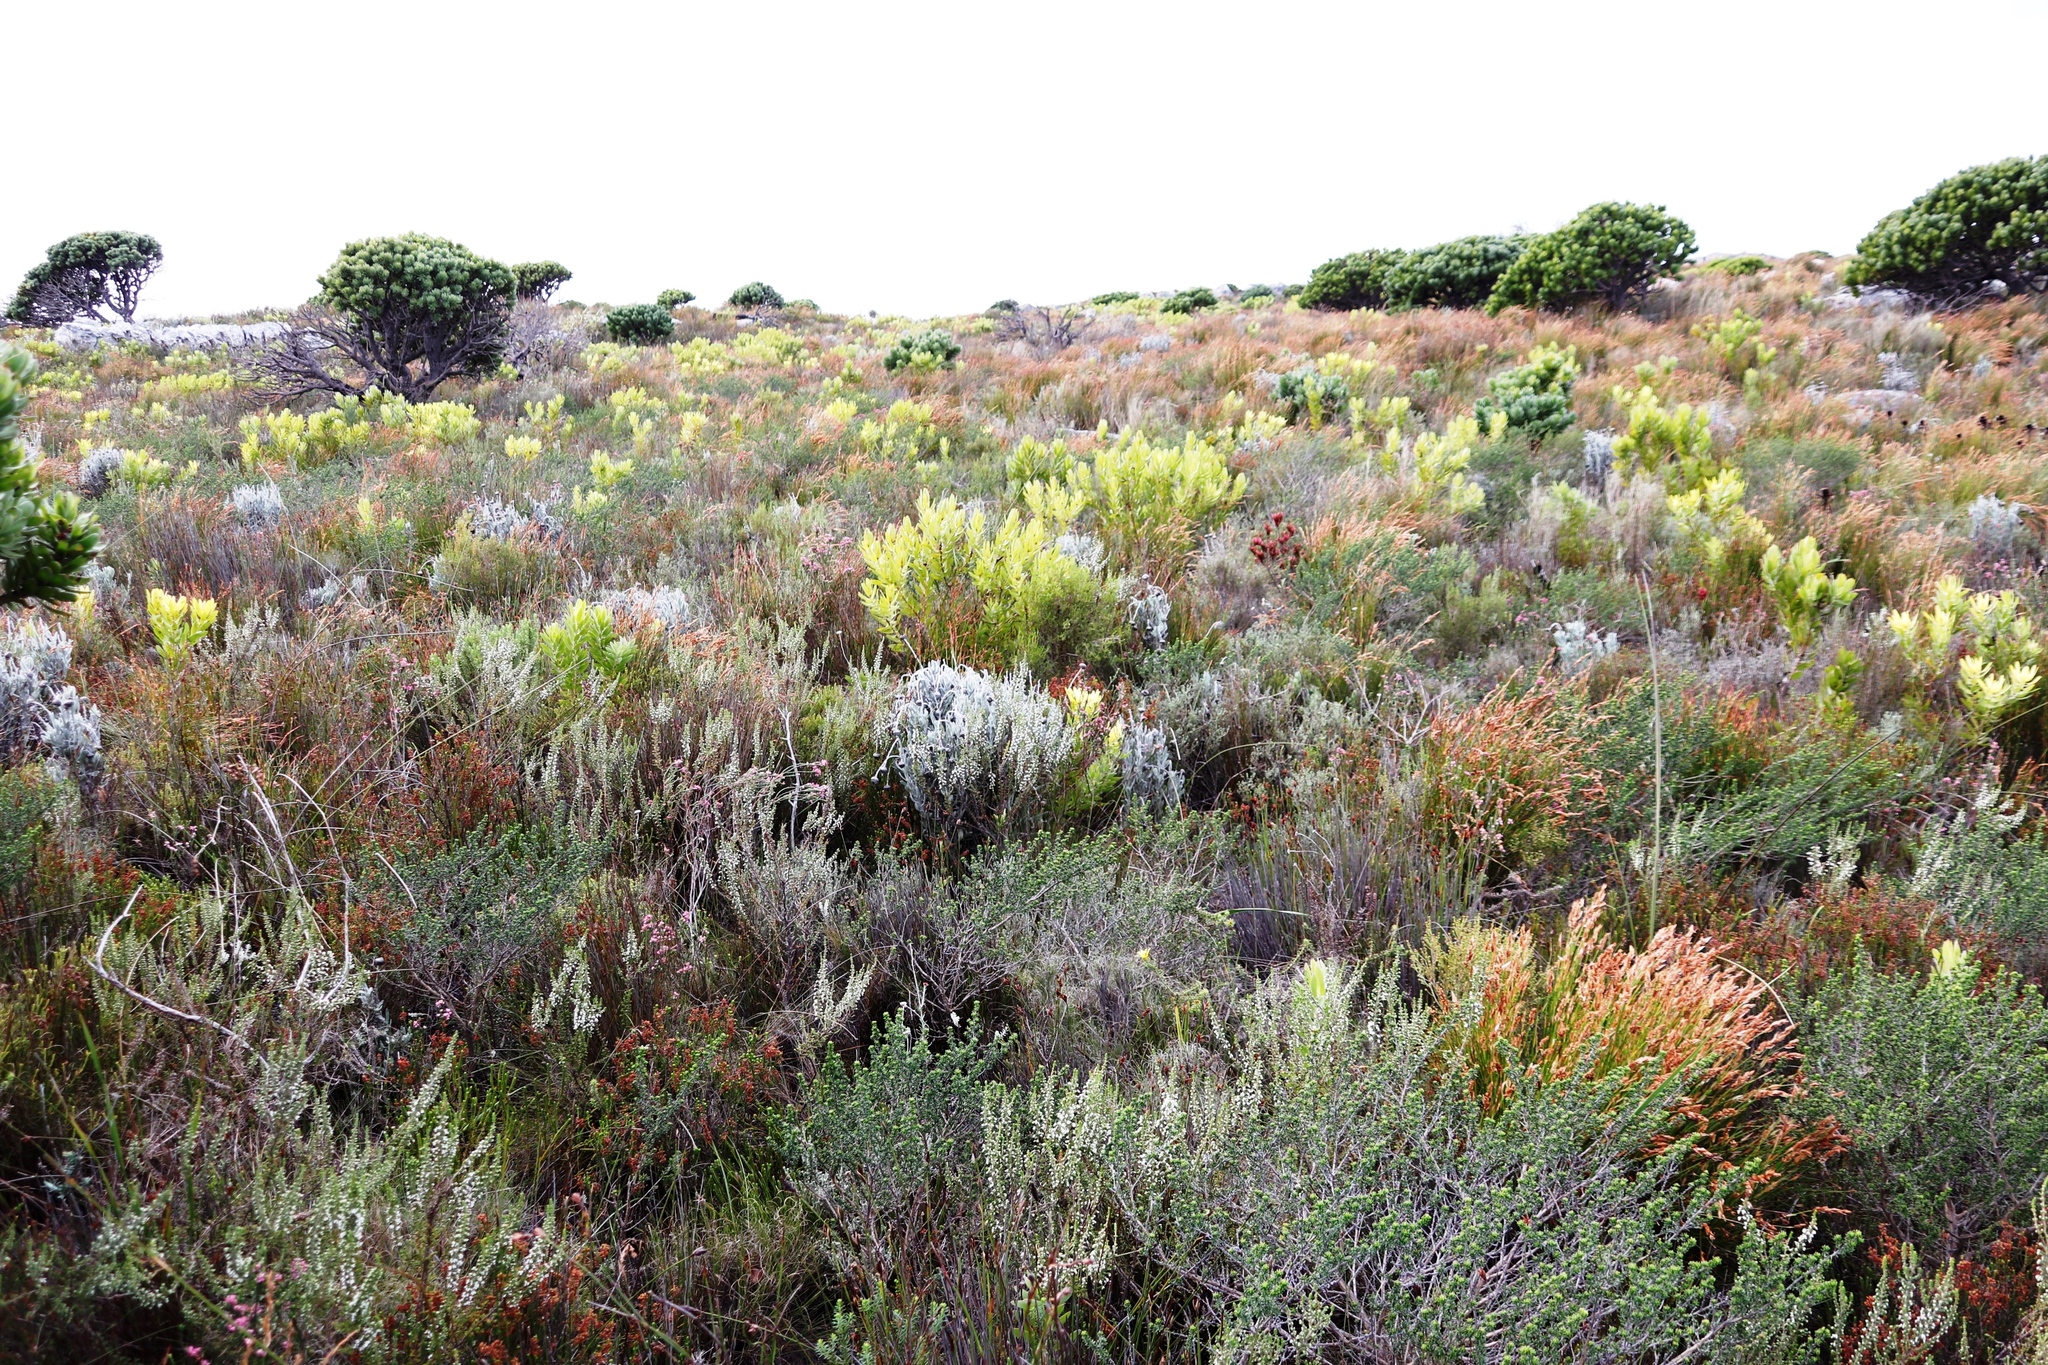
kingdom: Plantae
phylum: Tracheophyta
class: Magnoliopsida
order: Ericales
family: Ericaceae
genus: Erica
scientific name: Erica imbricata
